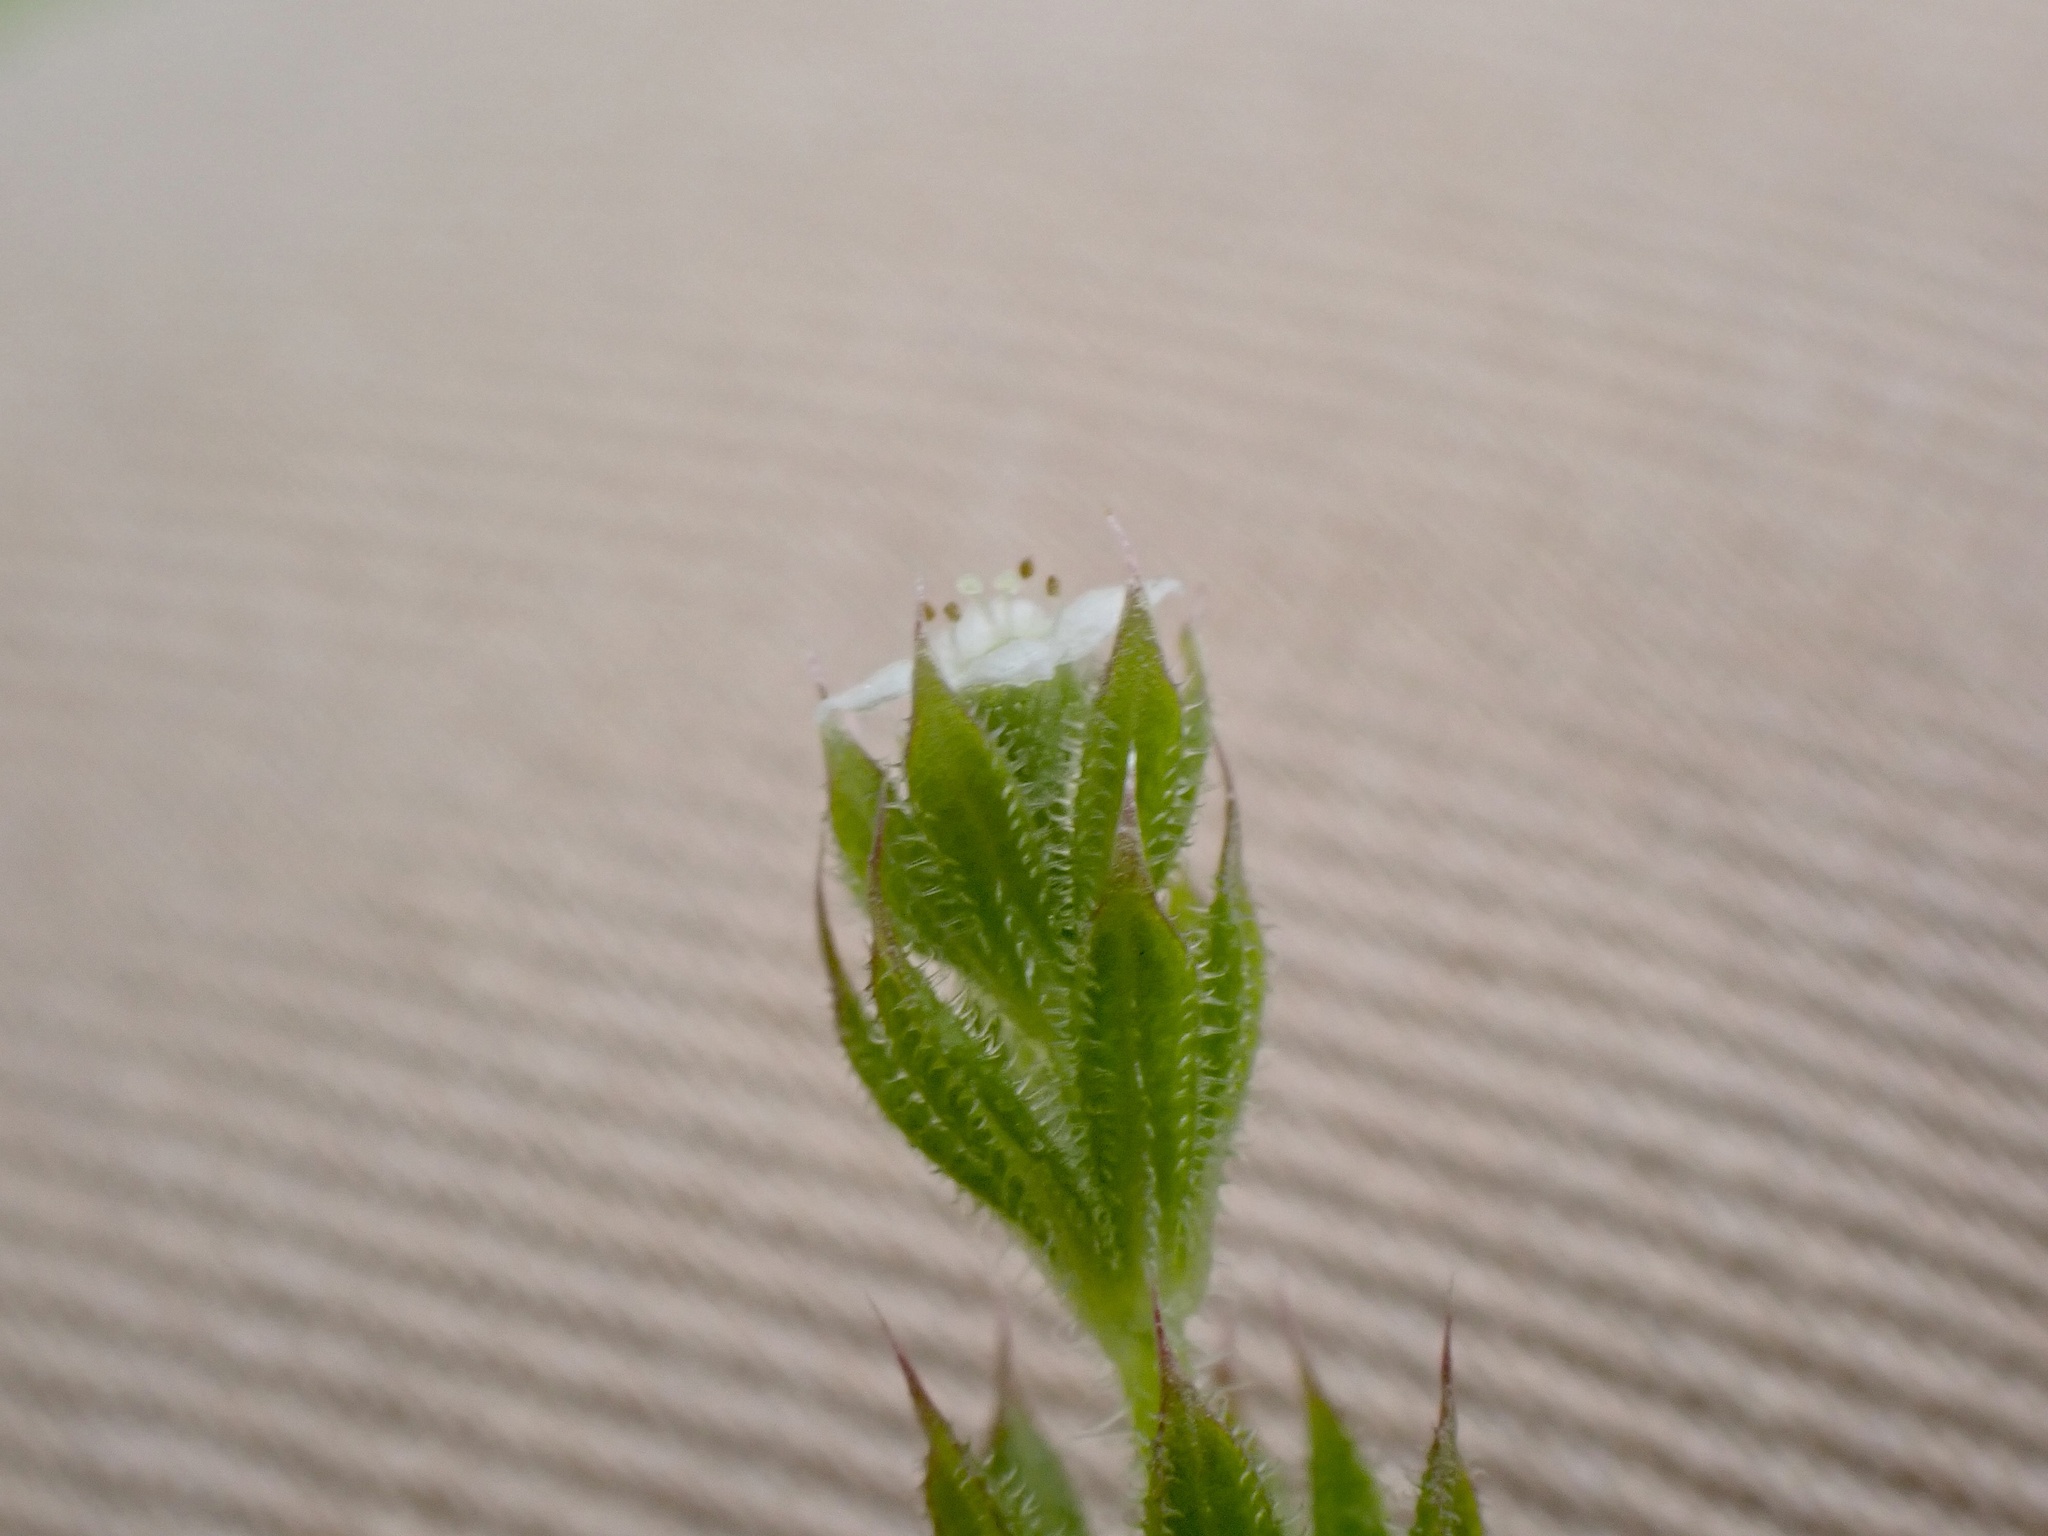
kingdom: Plantae
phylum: Tracheophyta
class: Magnoliopsida
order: Gentianales
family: Rubiaceae
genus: Galium
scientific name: Galium aparine
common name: Cleavers
